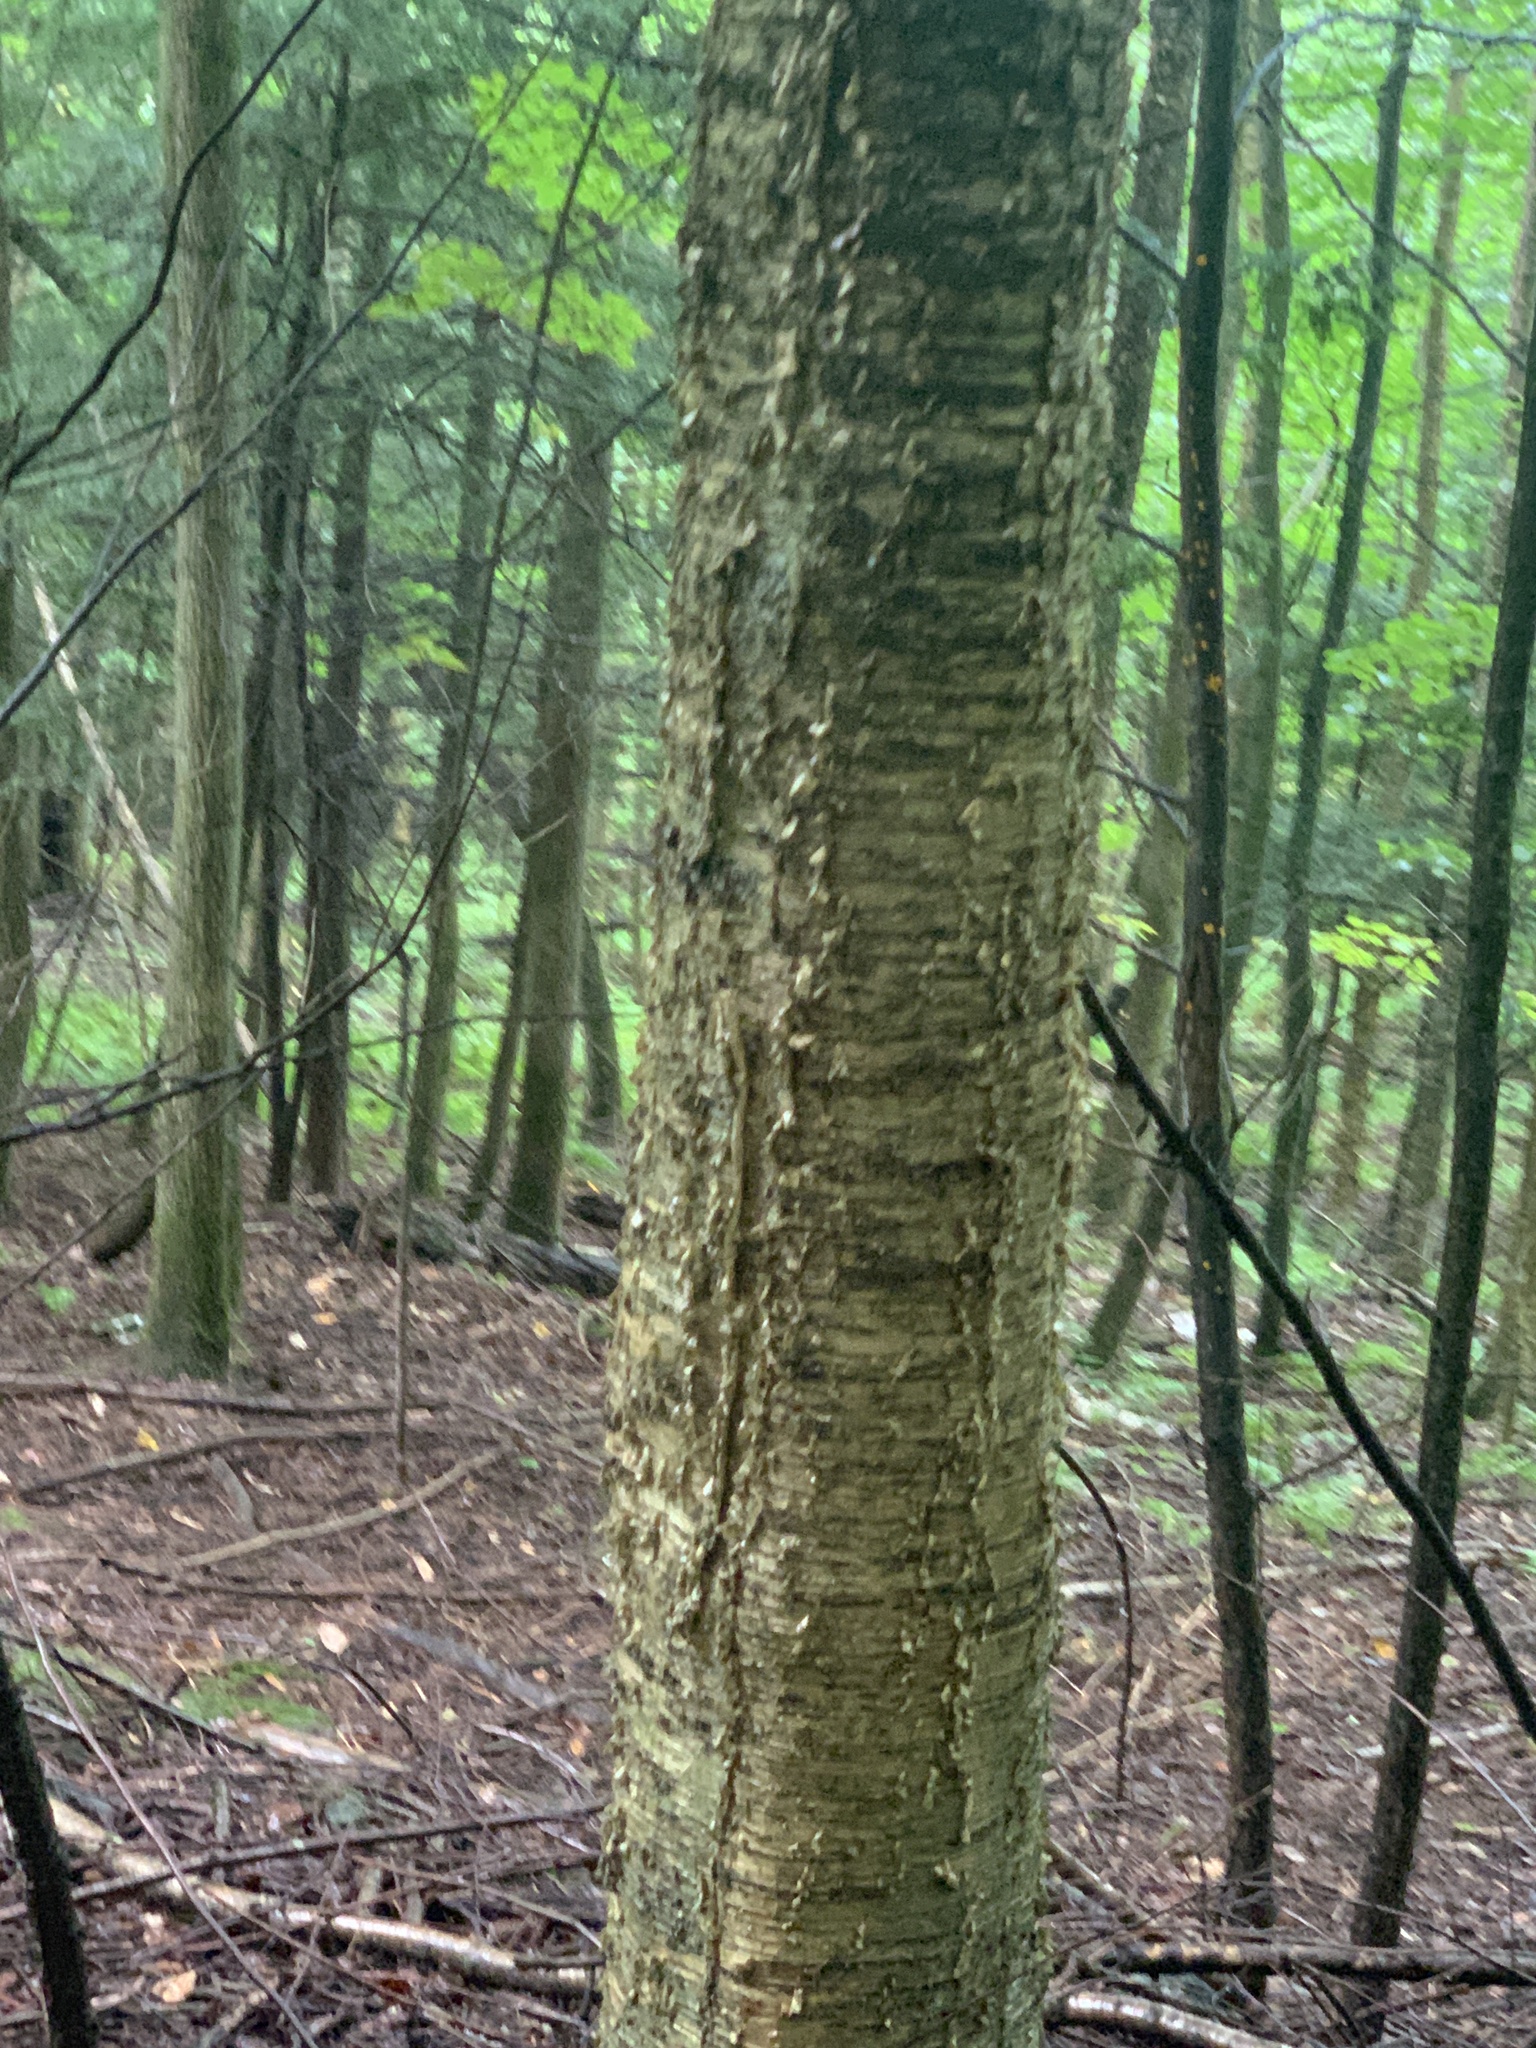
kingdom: Plantae
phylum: Tracheophyta
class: Magnoliopsida
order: Fagales
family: Betulaceae
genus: Betula
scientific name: Betula alleghaniensis
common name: Yellow birch
